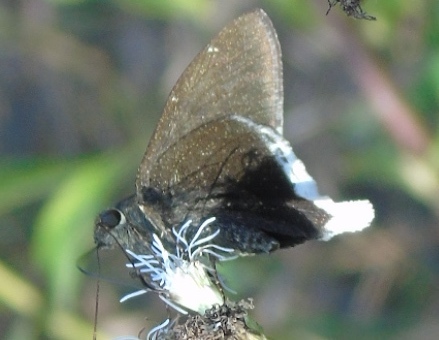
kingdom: Animalia
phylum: Arthropoda
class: Insecta
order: Lepidoptera
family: Hesperiidae
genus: Achalarus
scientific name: Achalarus
